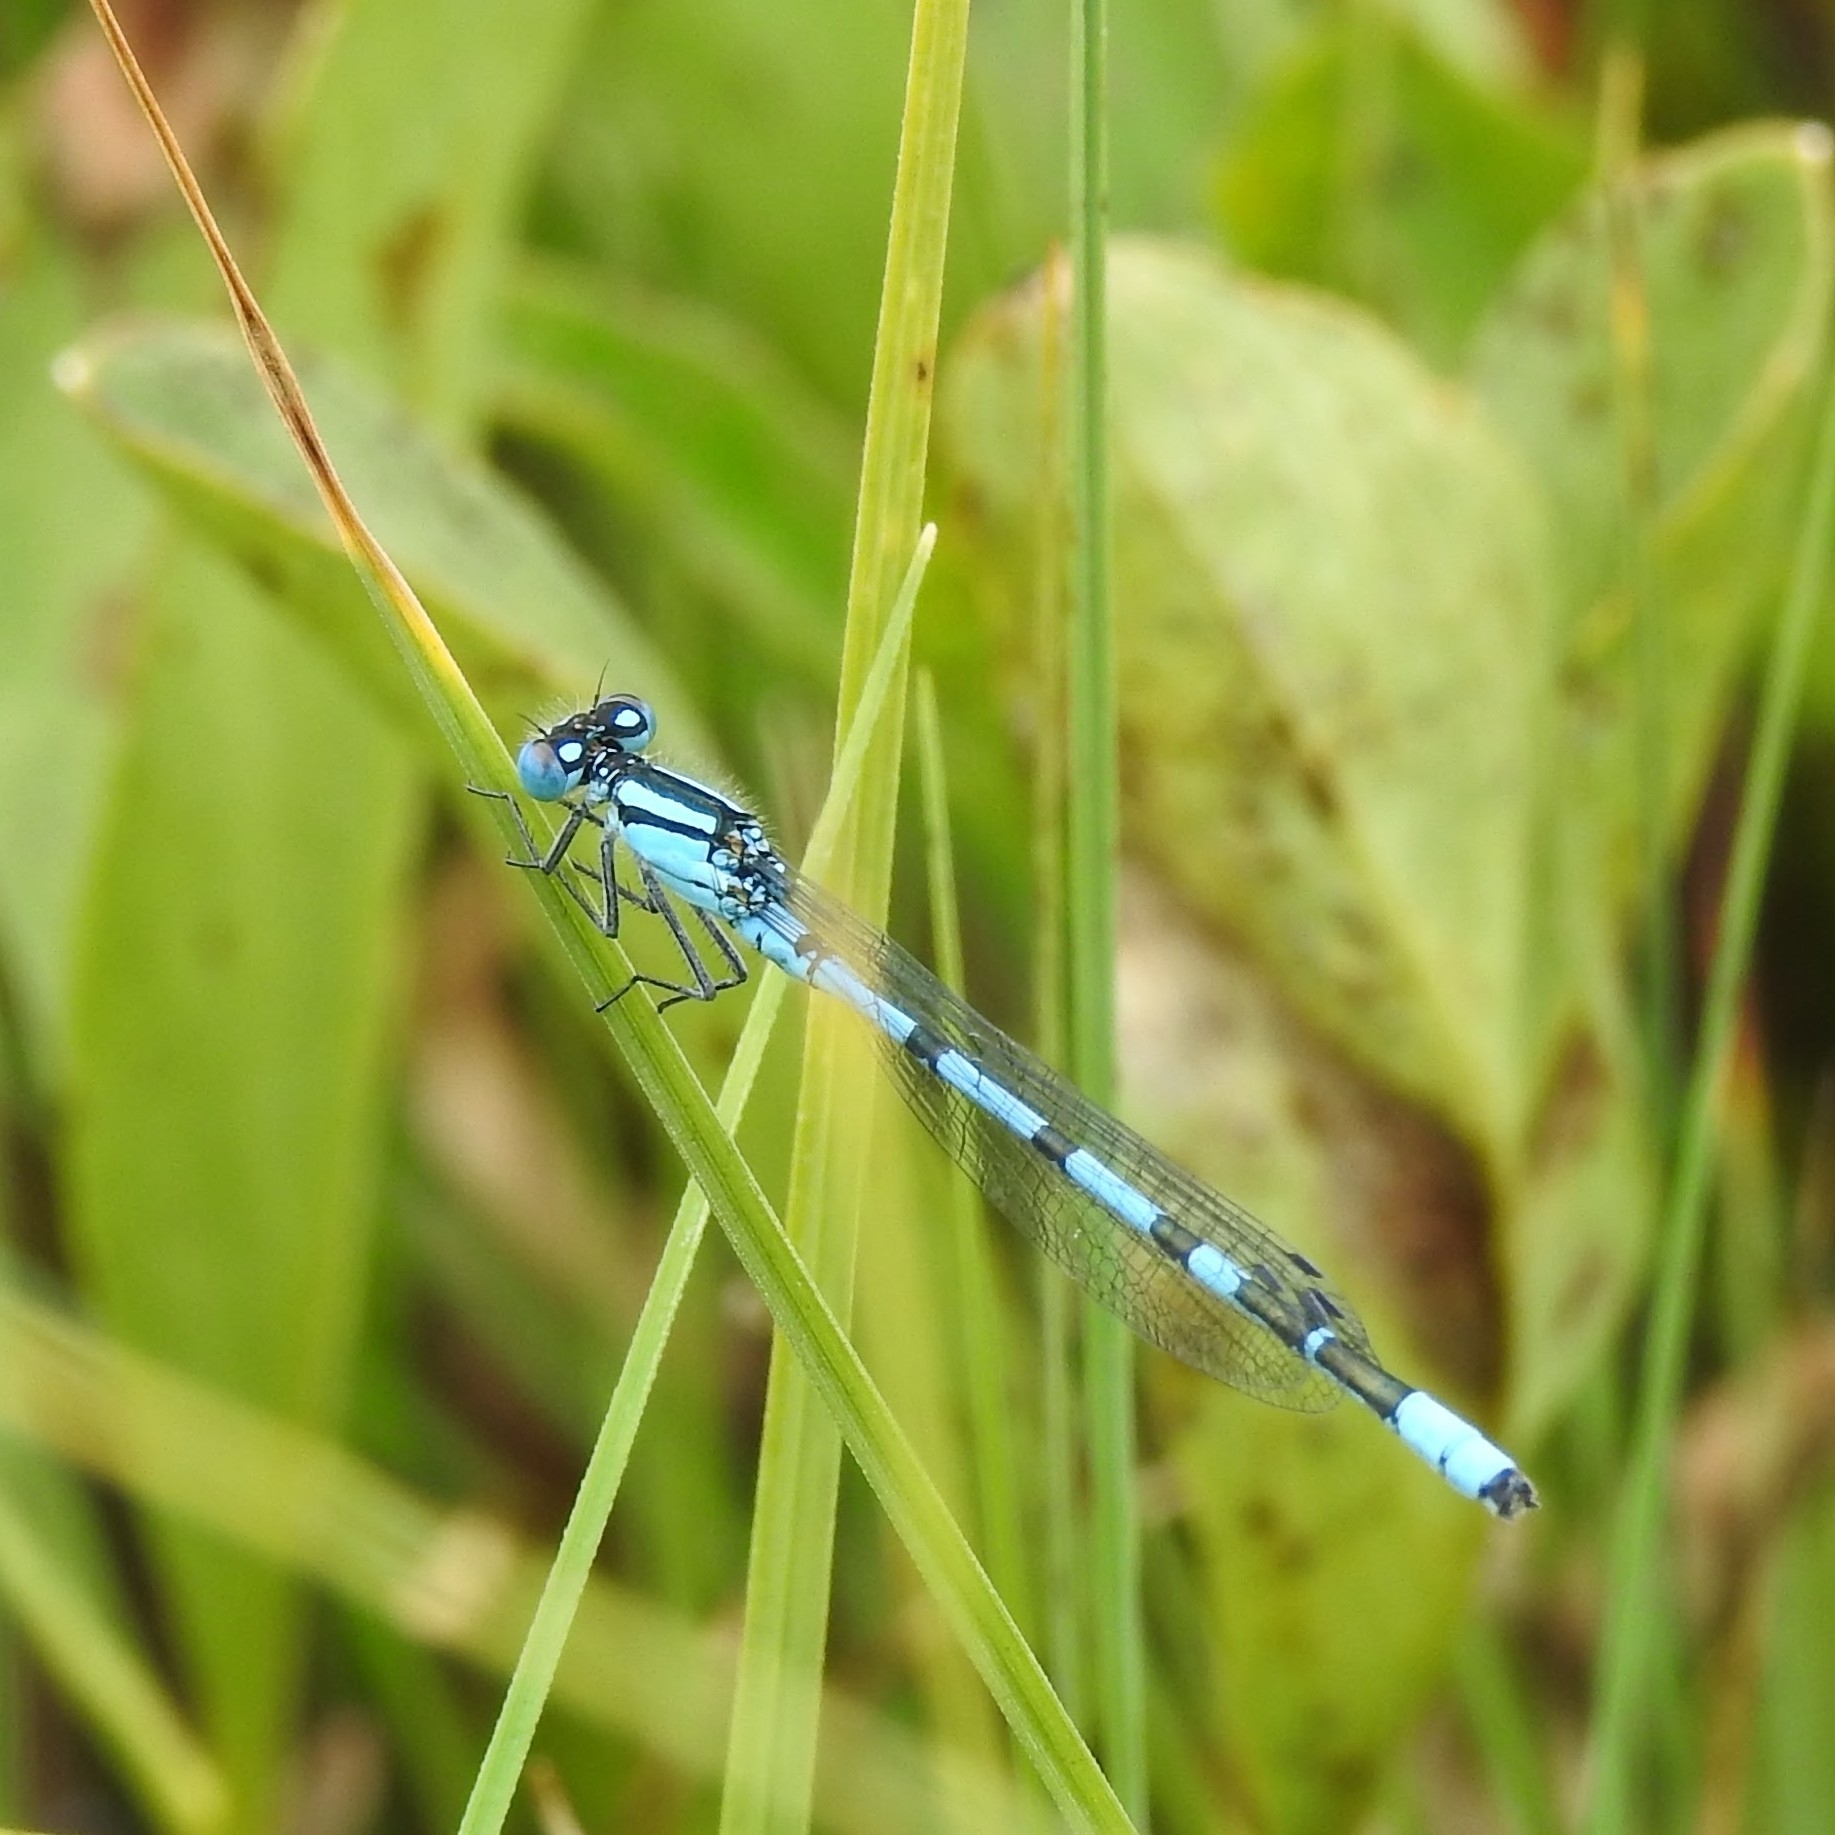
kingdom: Animalia
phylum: Arthropoda
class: Insecta
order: Odonata
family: Coenagrionidae
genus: Enallagma
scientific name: Enallagma cyathigerum
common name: Common blue damselfly
